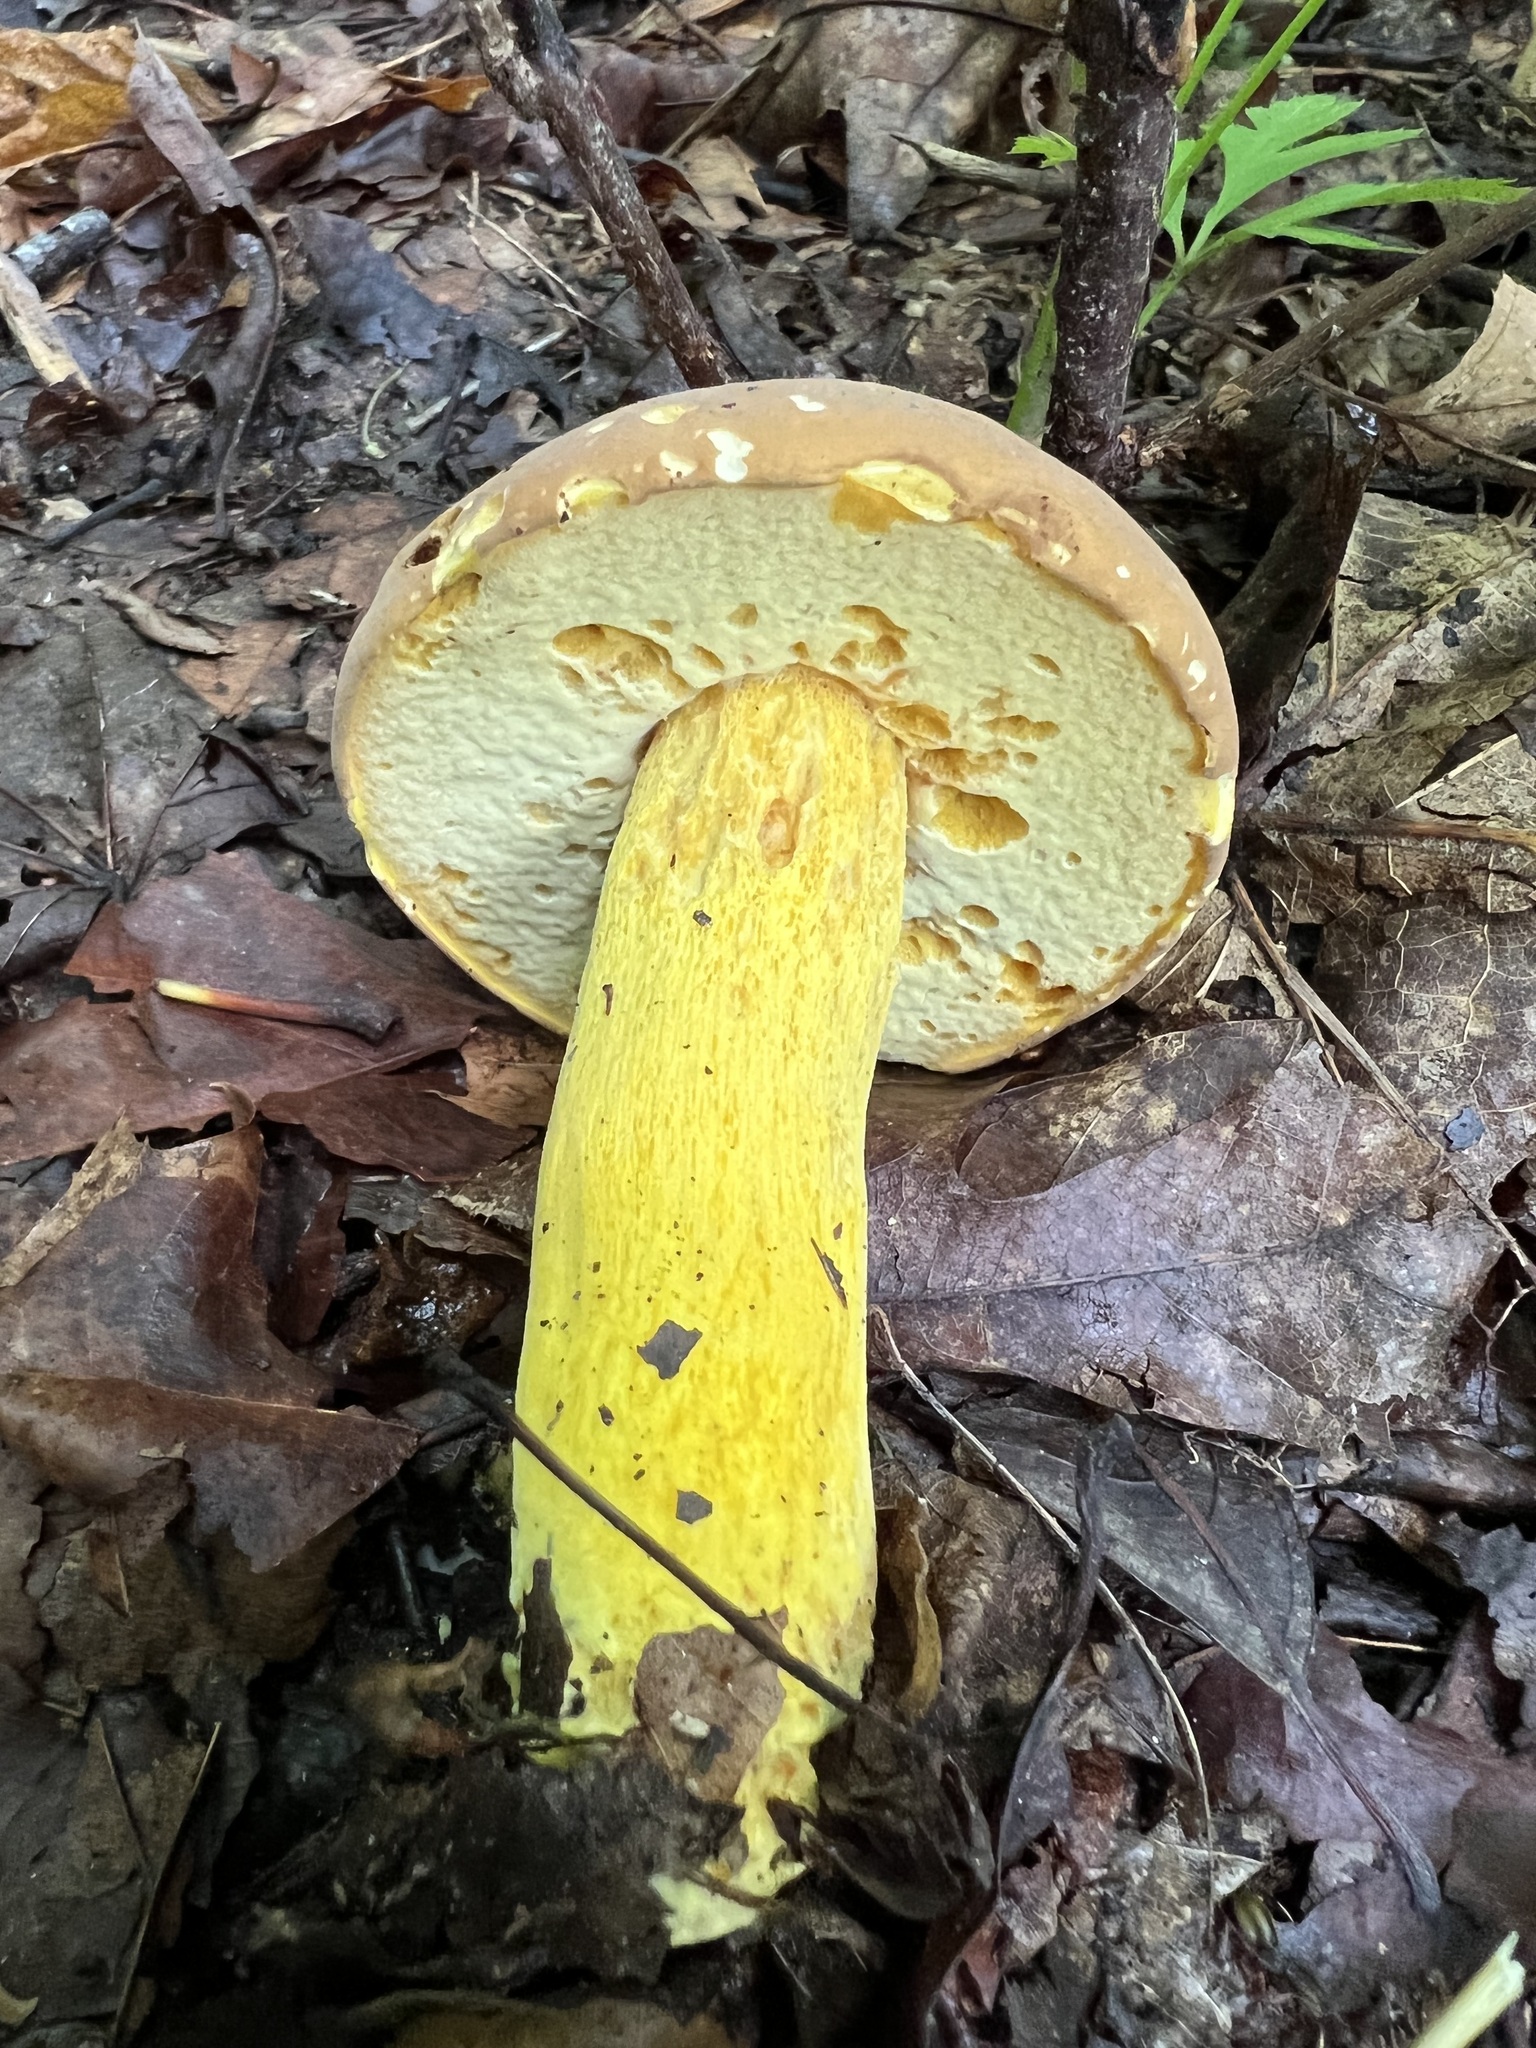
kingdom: Fungi
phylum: Basidiomycota
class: Agaricomycetes
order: Boletales
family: Boletaceae
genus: Boletus
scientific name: Boletus auripes
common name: Butter-foot bolete
